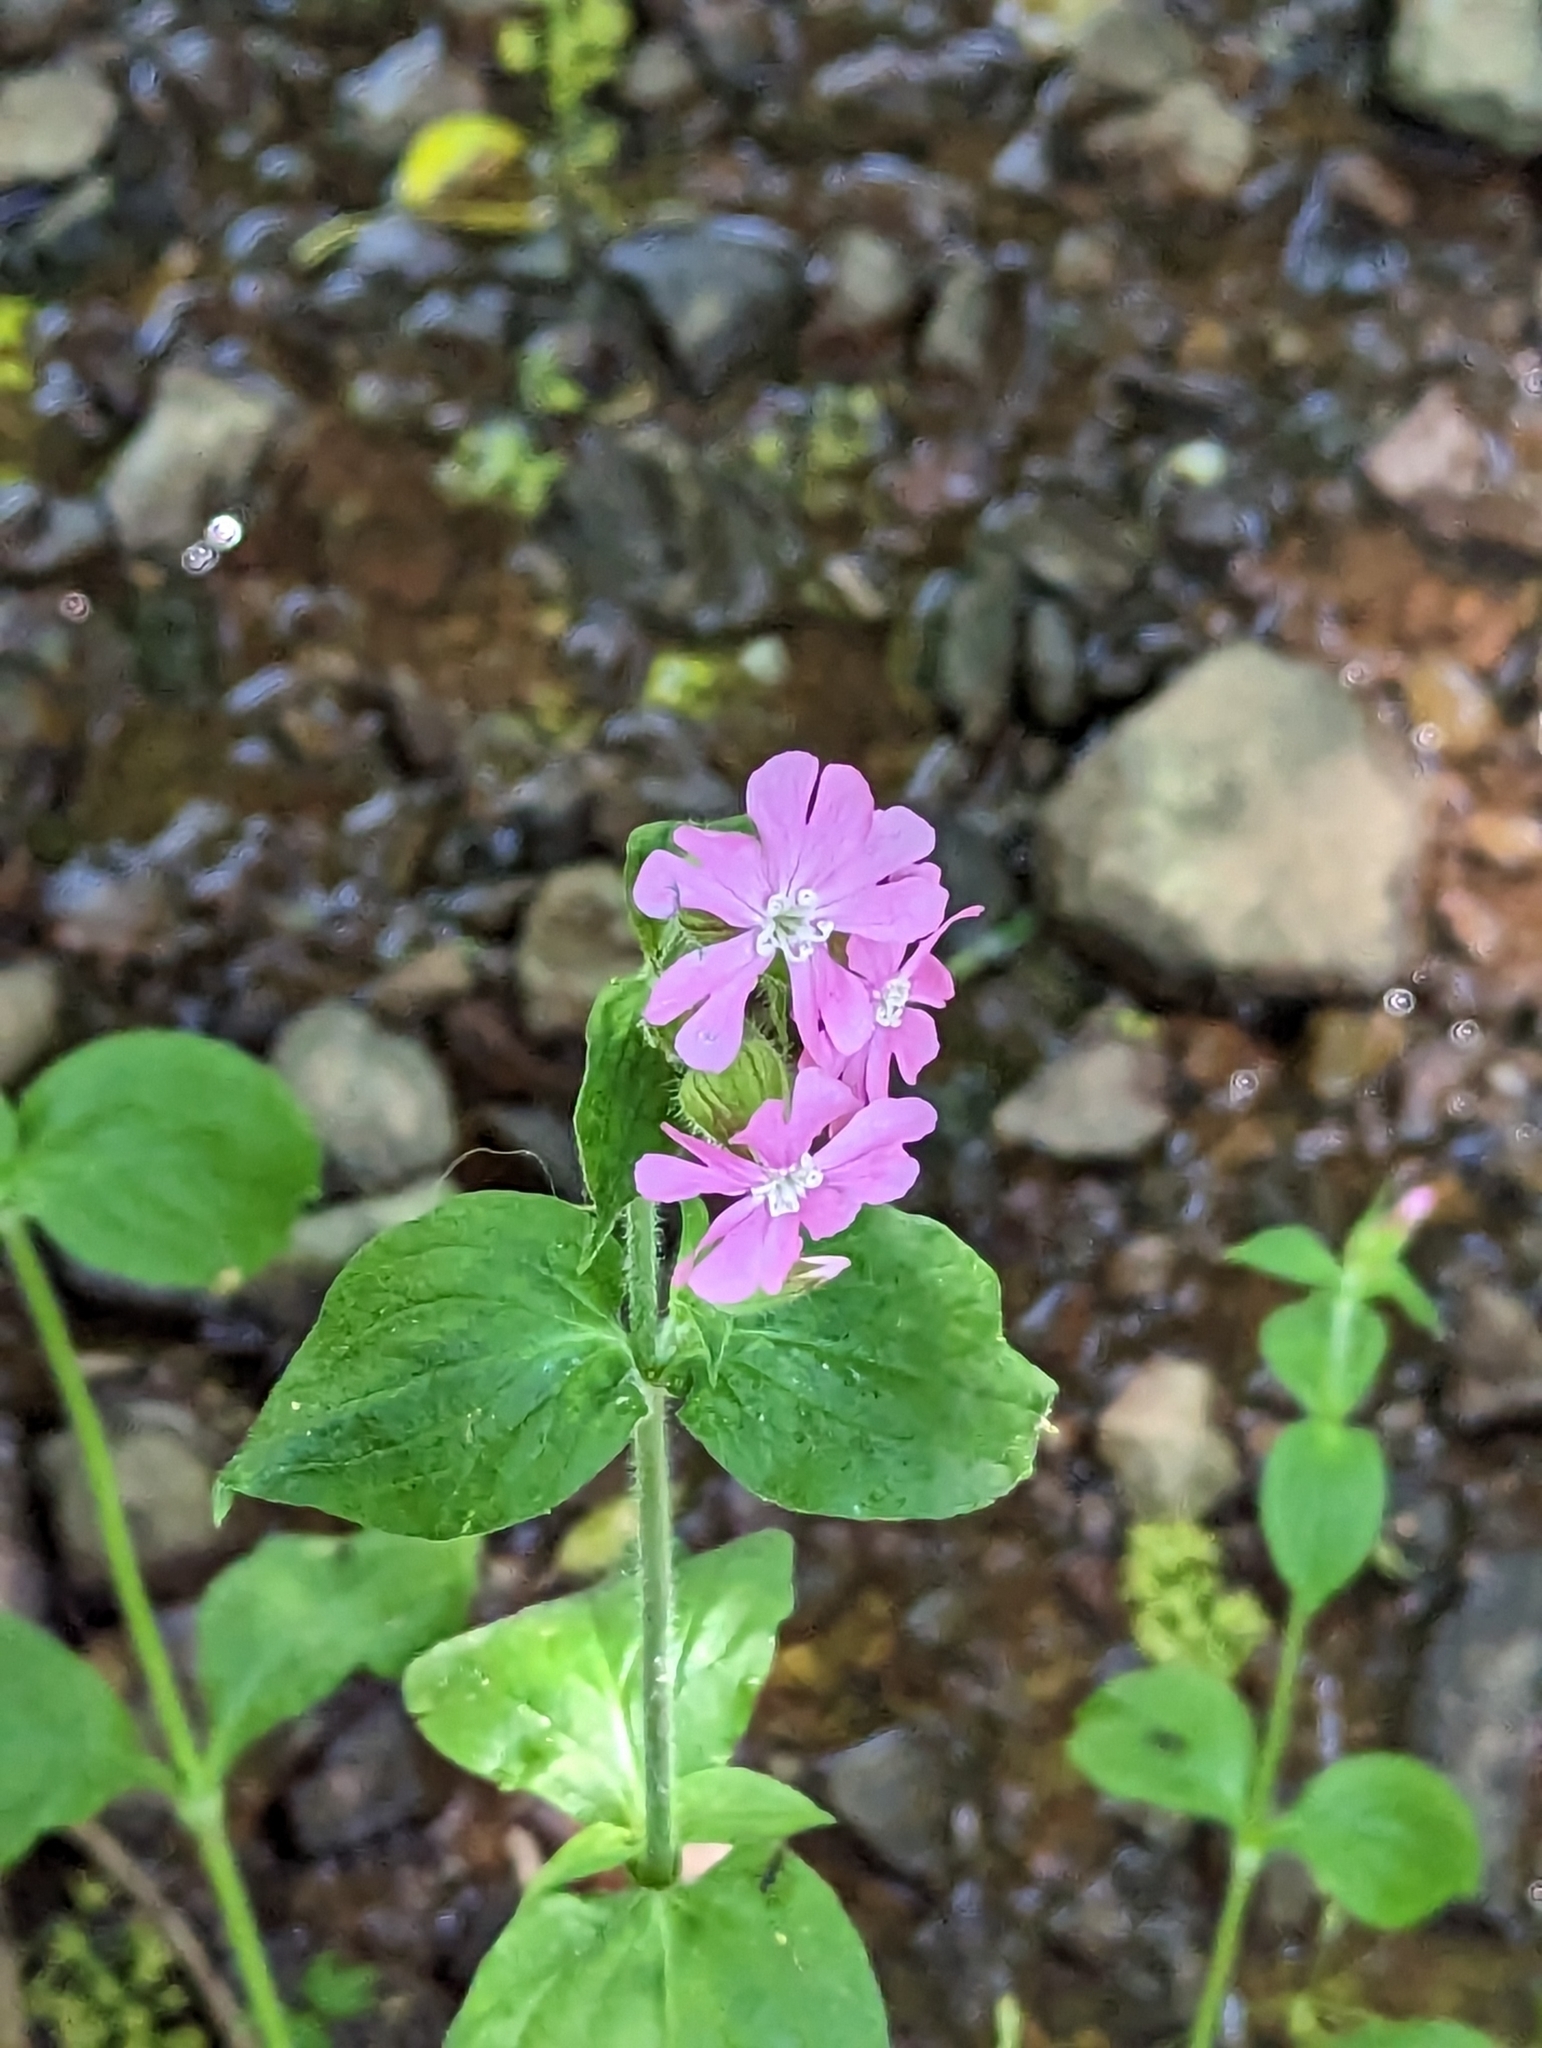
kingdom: Plantae
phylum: Tracheophyta
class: Magnoliopsida
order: Caryophyllales
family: Caryophyllaceae
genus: Silene
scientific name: Silene dioica
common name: Red campion
